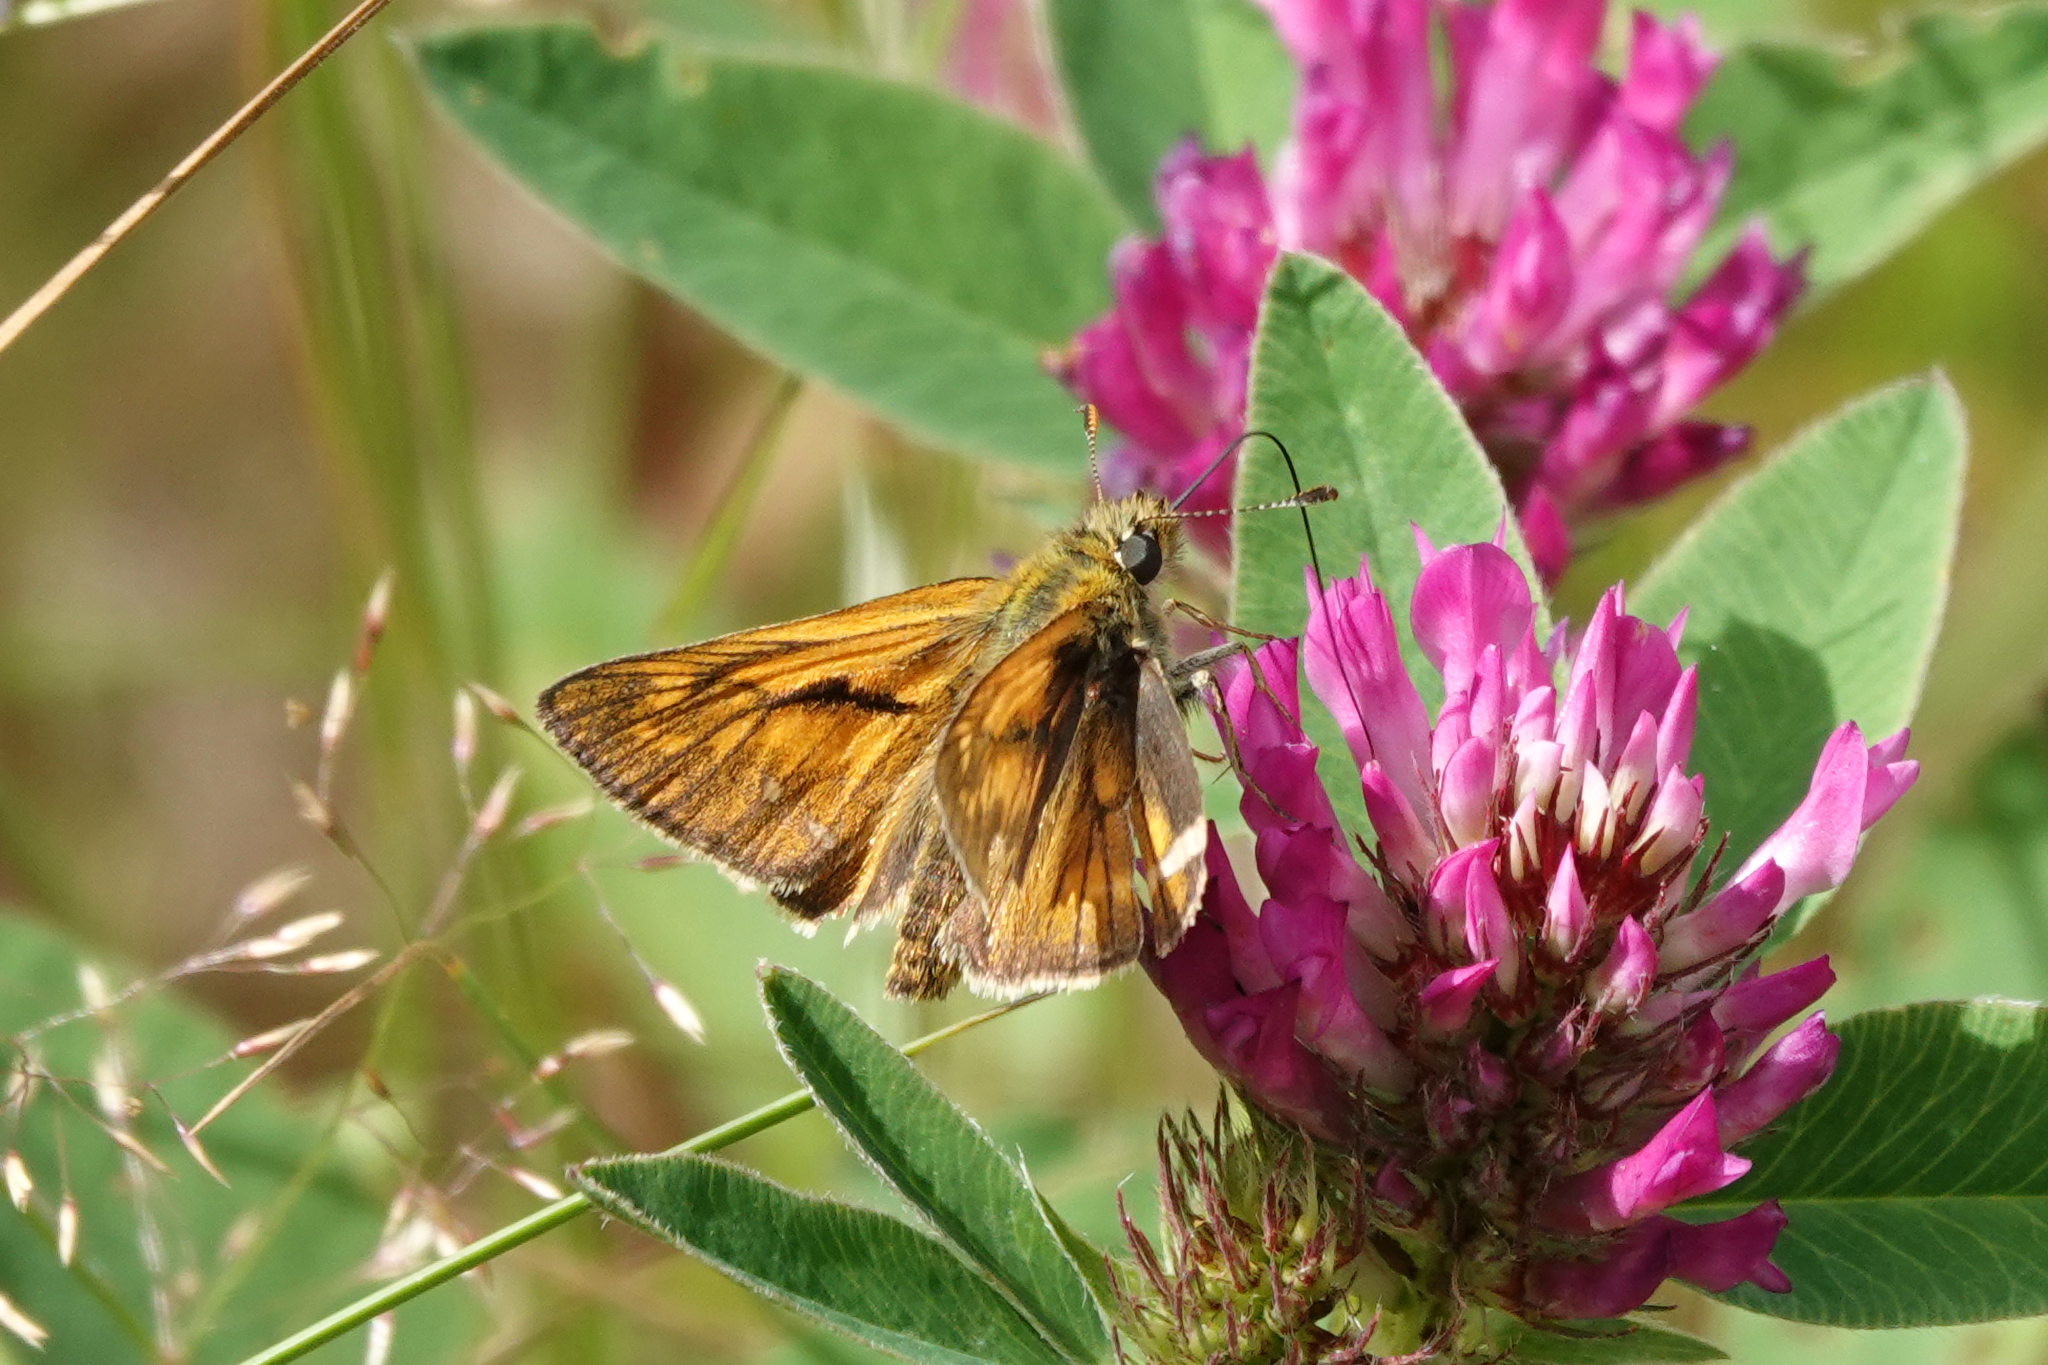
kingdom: Animalia
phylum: Arthropoda
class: Insecta
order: Lepidoptera
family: Hesperiidae
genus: Ochlodes
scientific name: Ochlodes venata
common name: Large skipper
